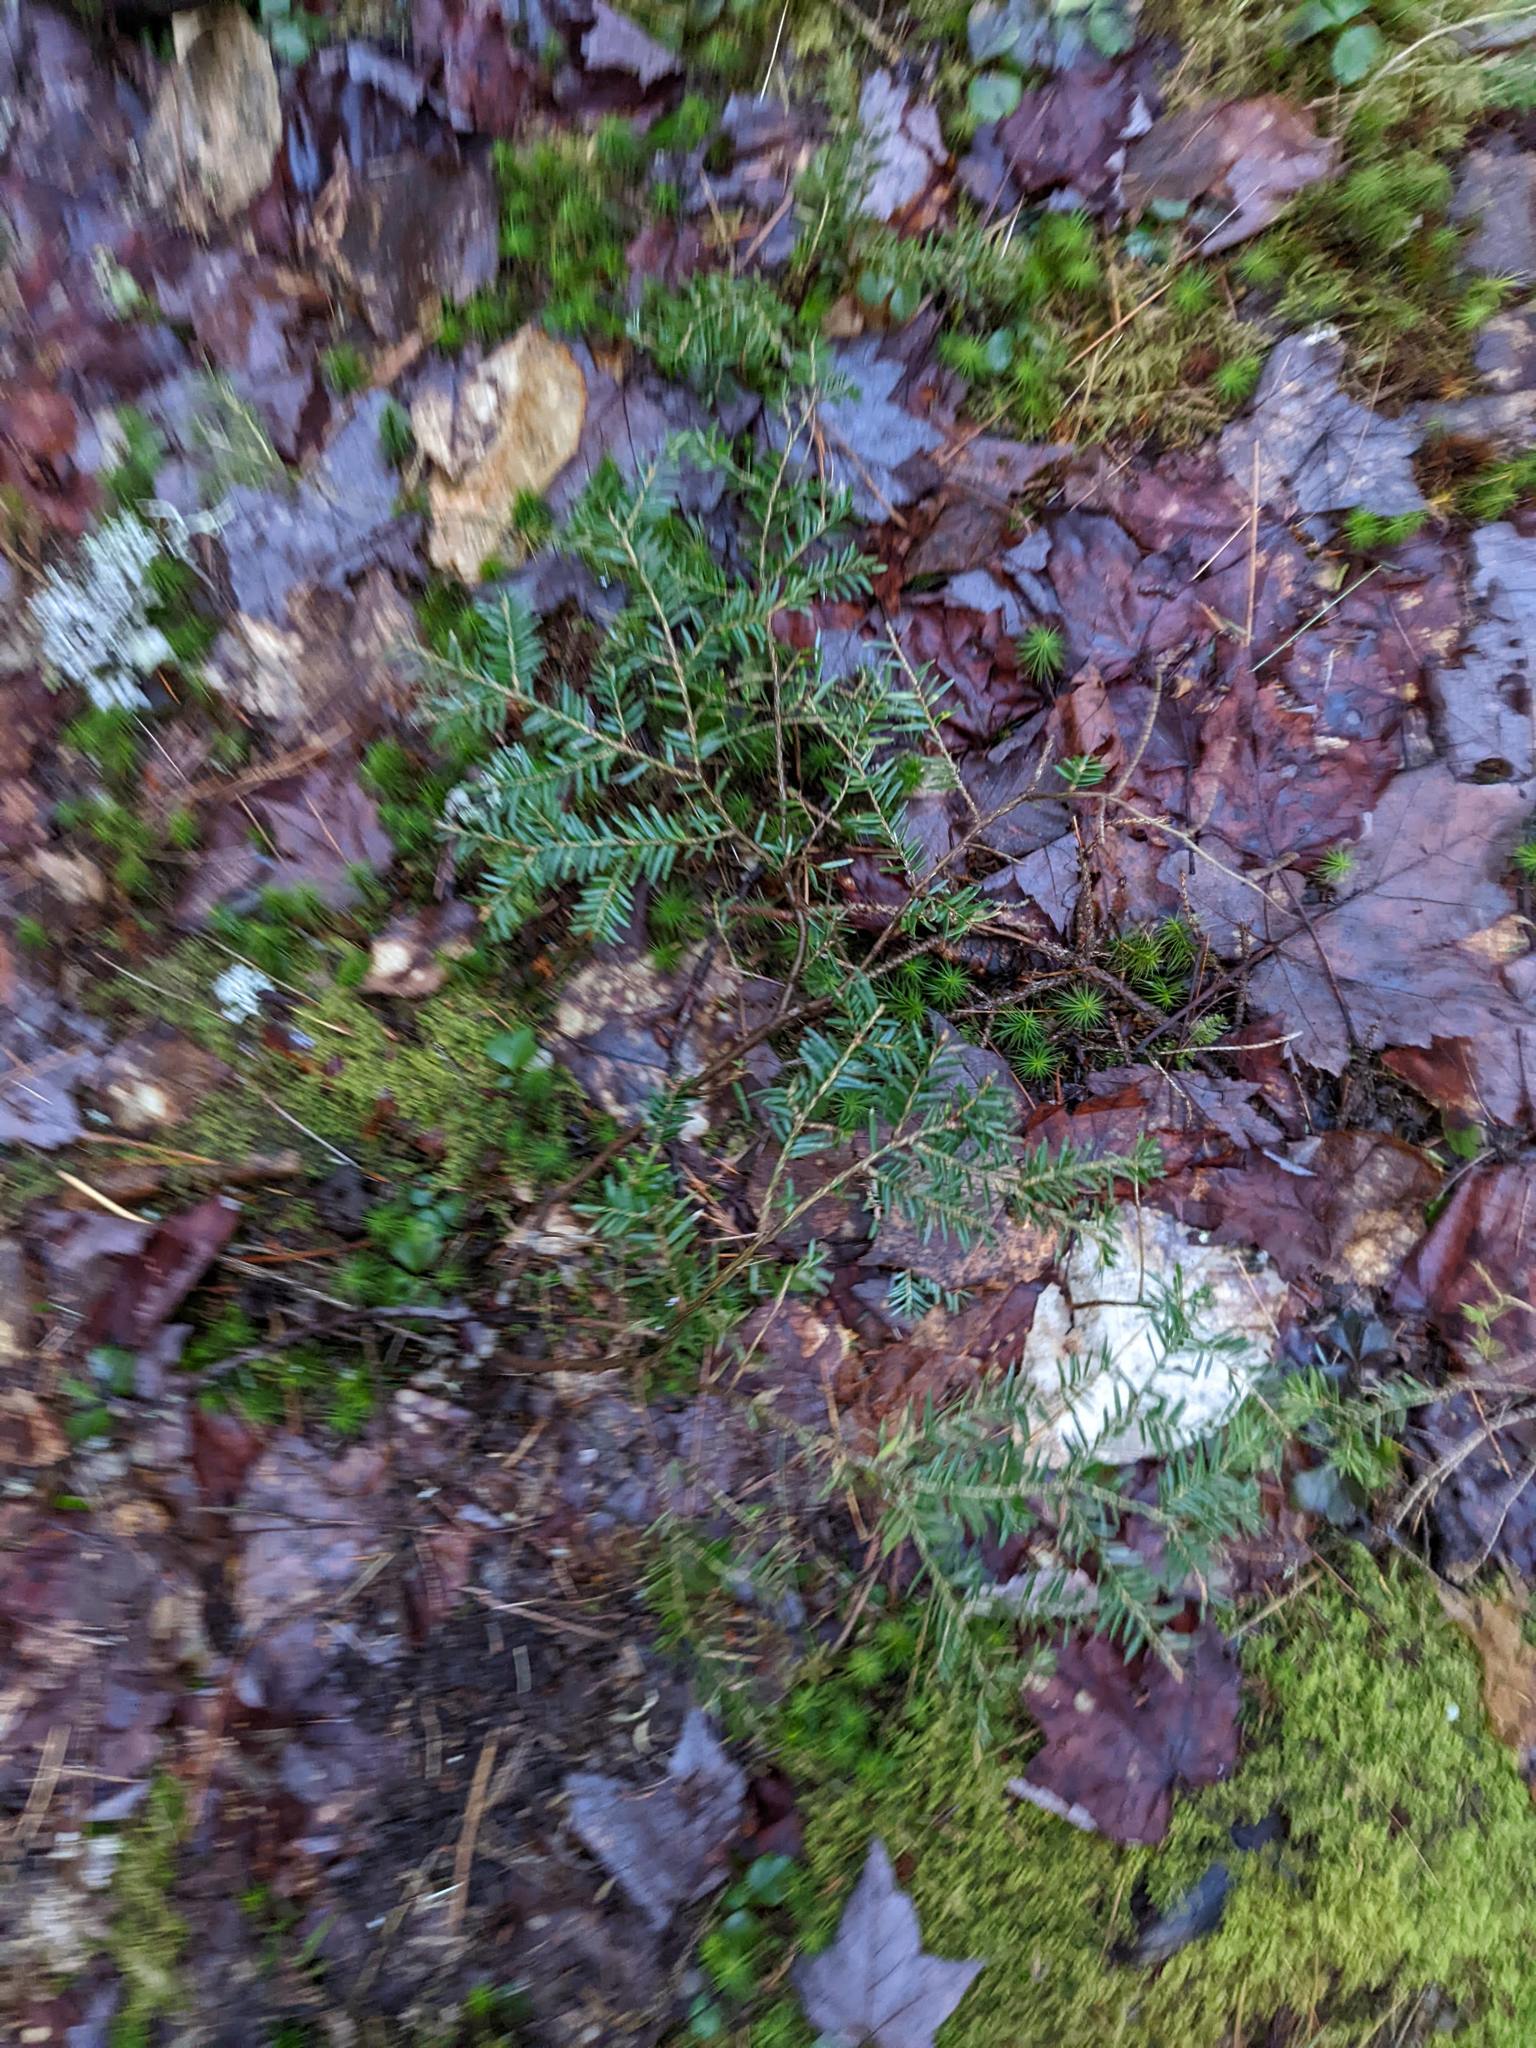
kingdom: Plantae
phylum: Tracheophyta
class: Pinopsida
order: Pinales
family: Pinaceae
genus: Tsuga
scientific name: Tsuga canadensis
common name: Eastern hemlock
